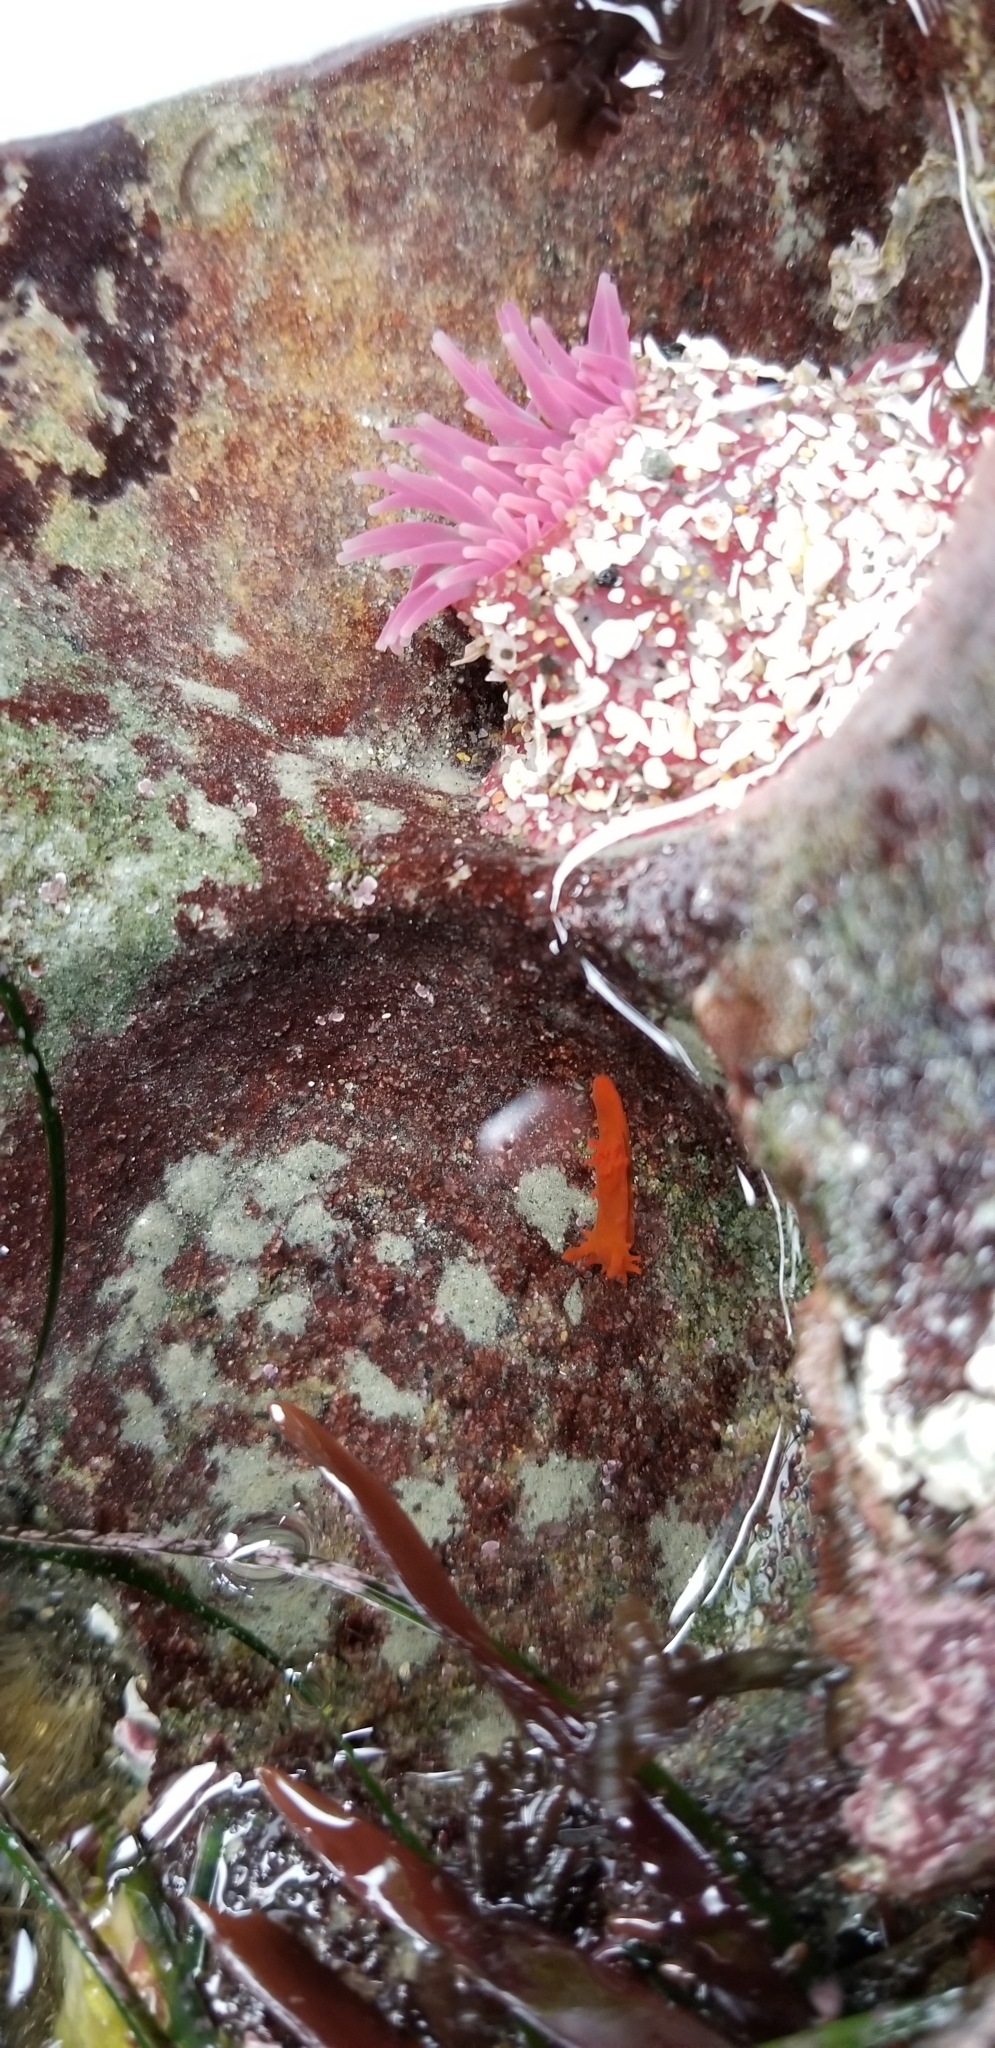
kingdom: Animalia
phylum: Mollusca
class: Gastropoda
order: Nudibranchia
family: Polyceridae
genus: Triopha
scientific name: Triopha maculata
